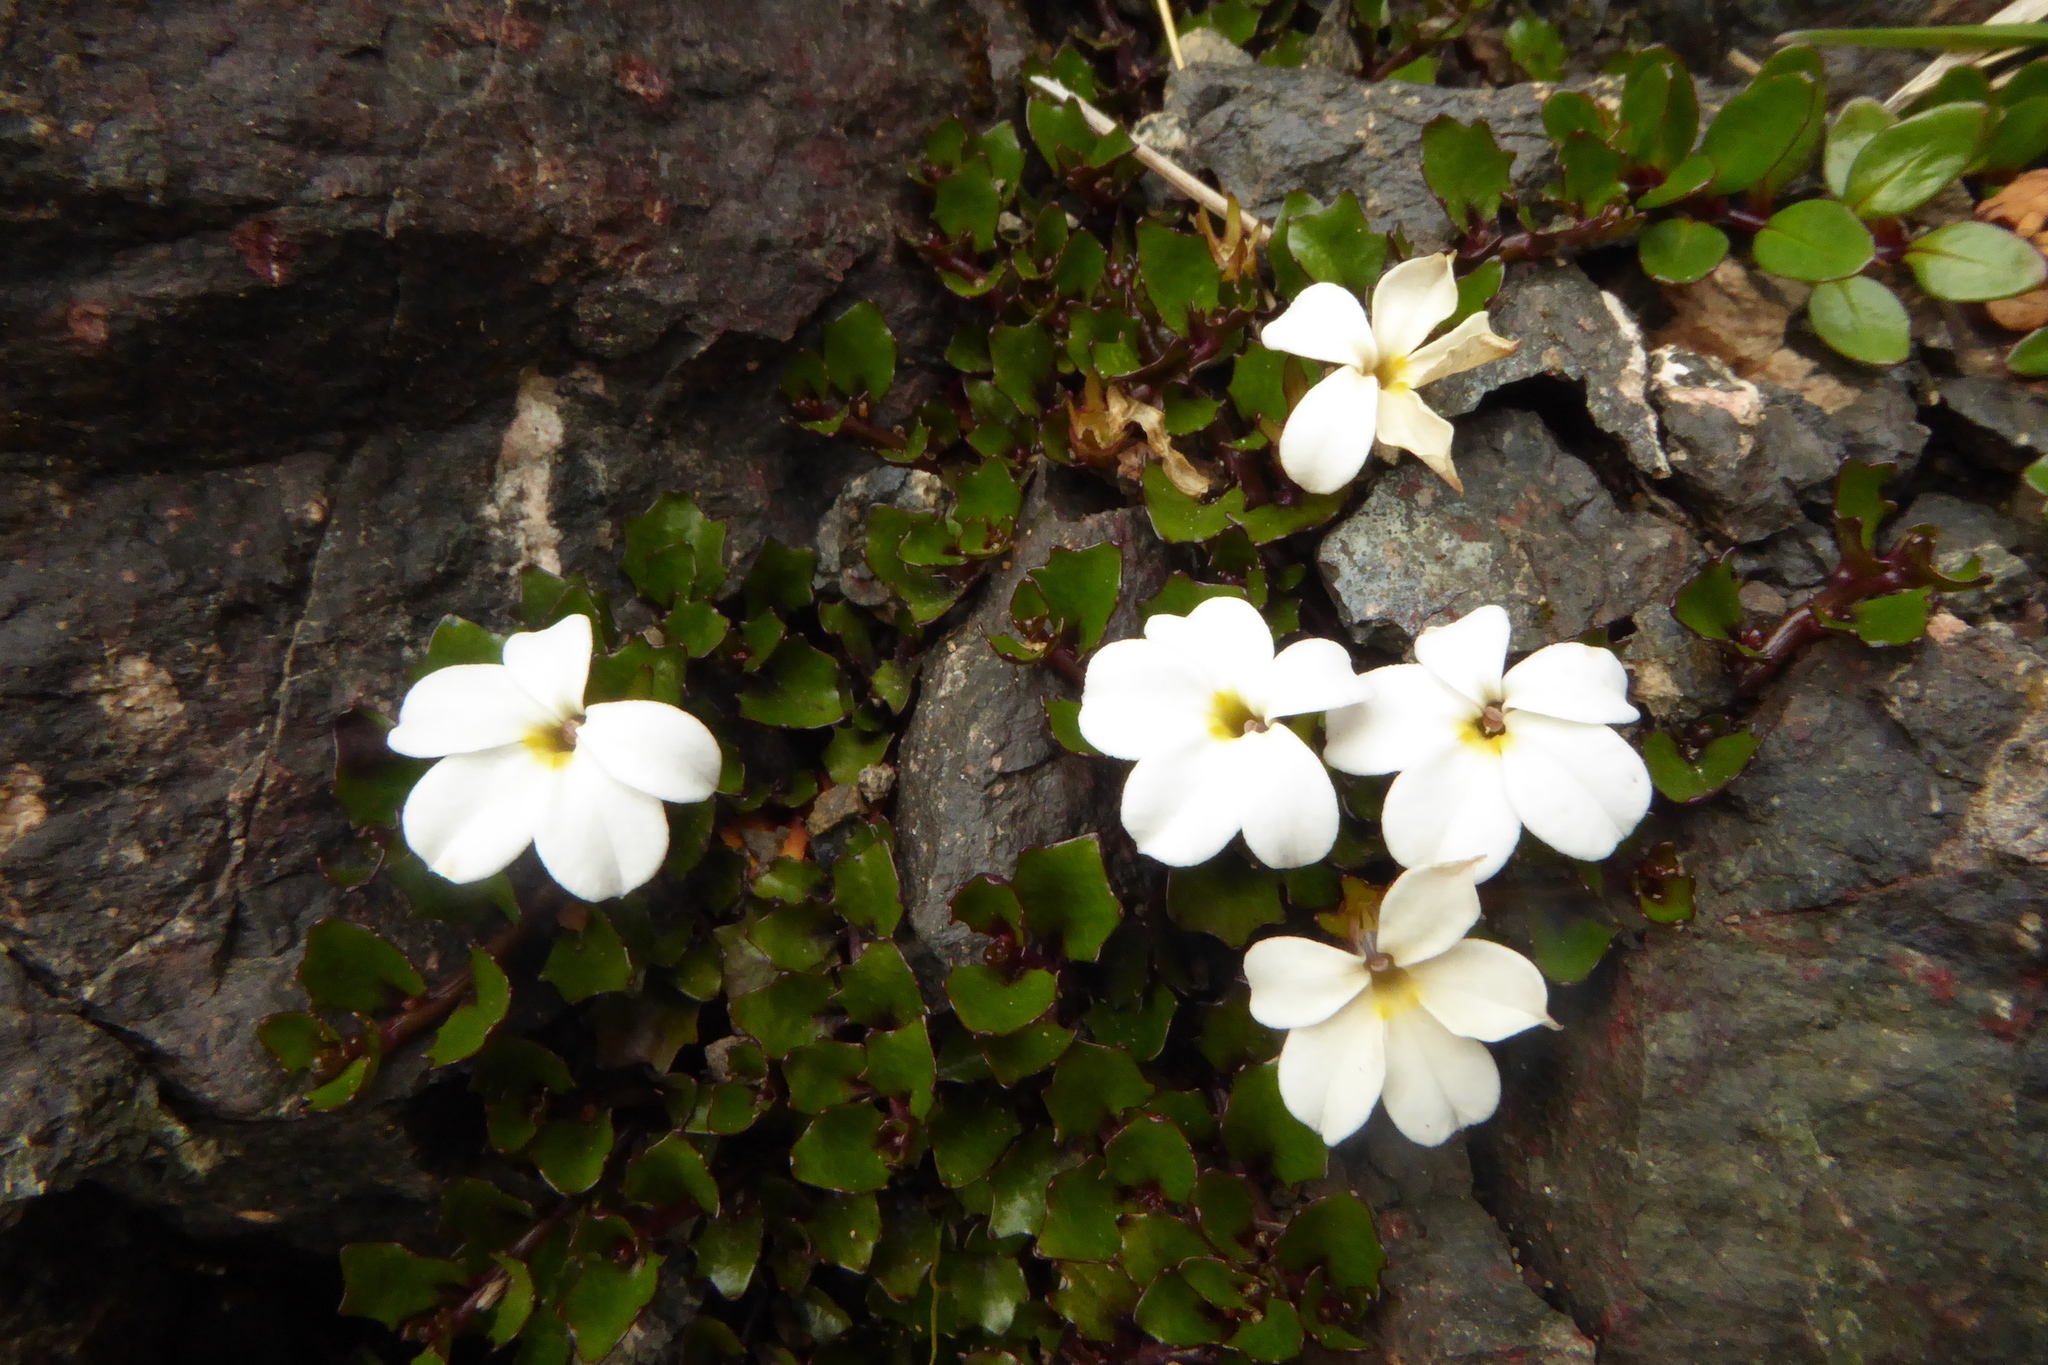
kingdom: Plantae
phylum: Tracheophyta
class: Magnoliopsida
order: Asterales
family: Campanulaceae
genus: Lobelia
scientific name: Lobelia glaberrima
